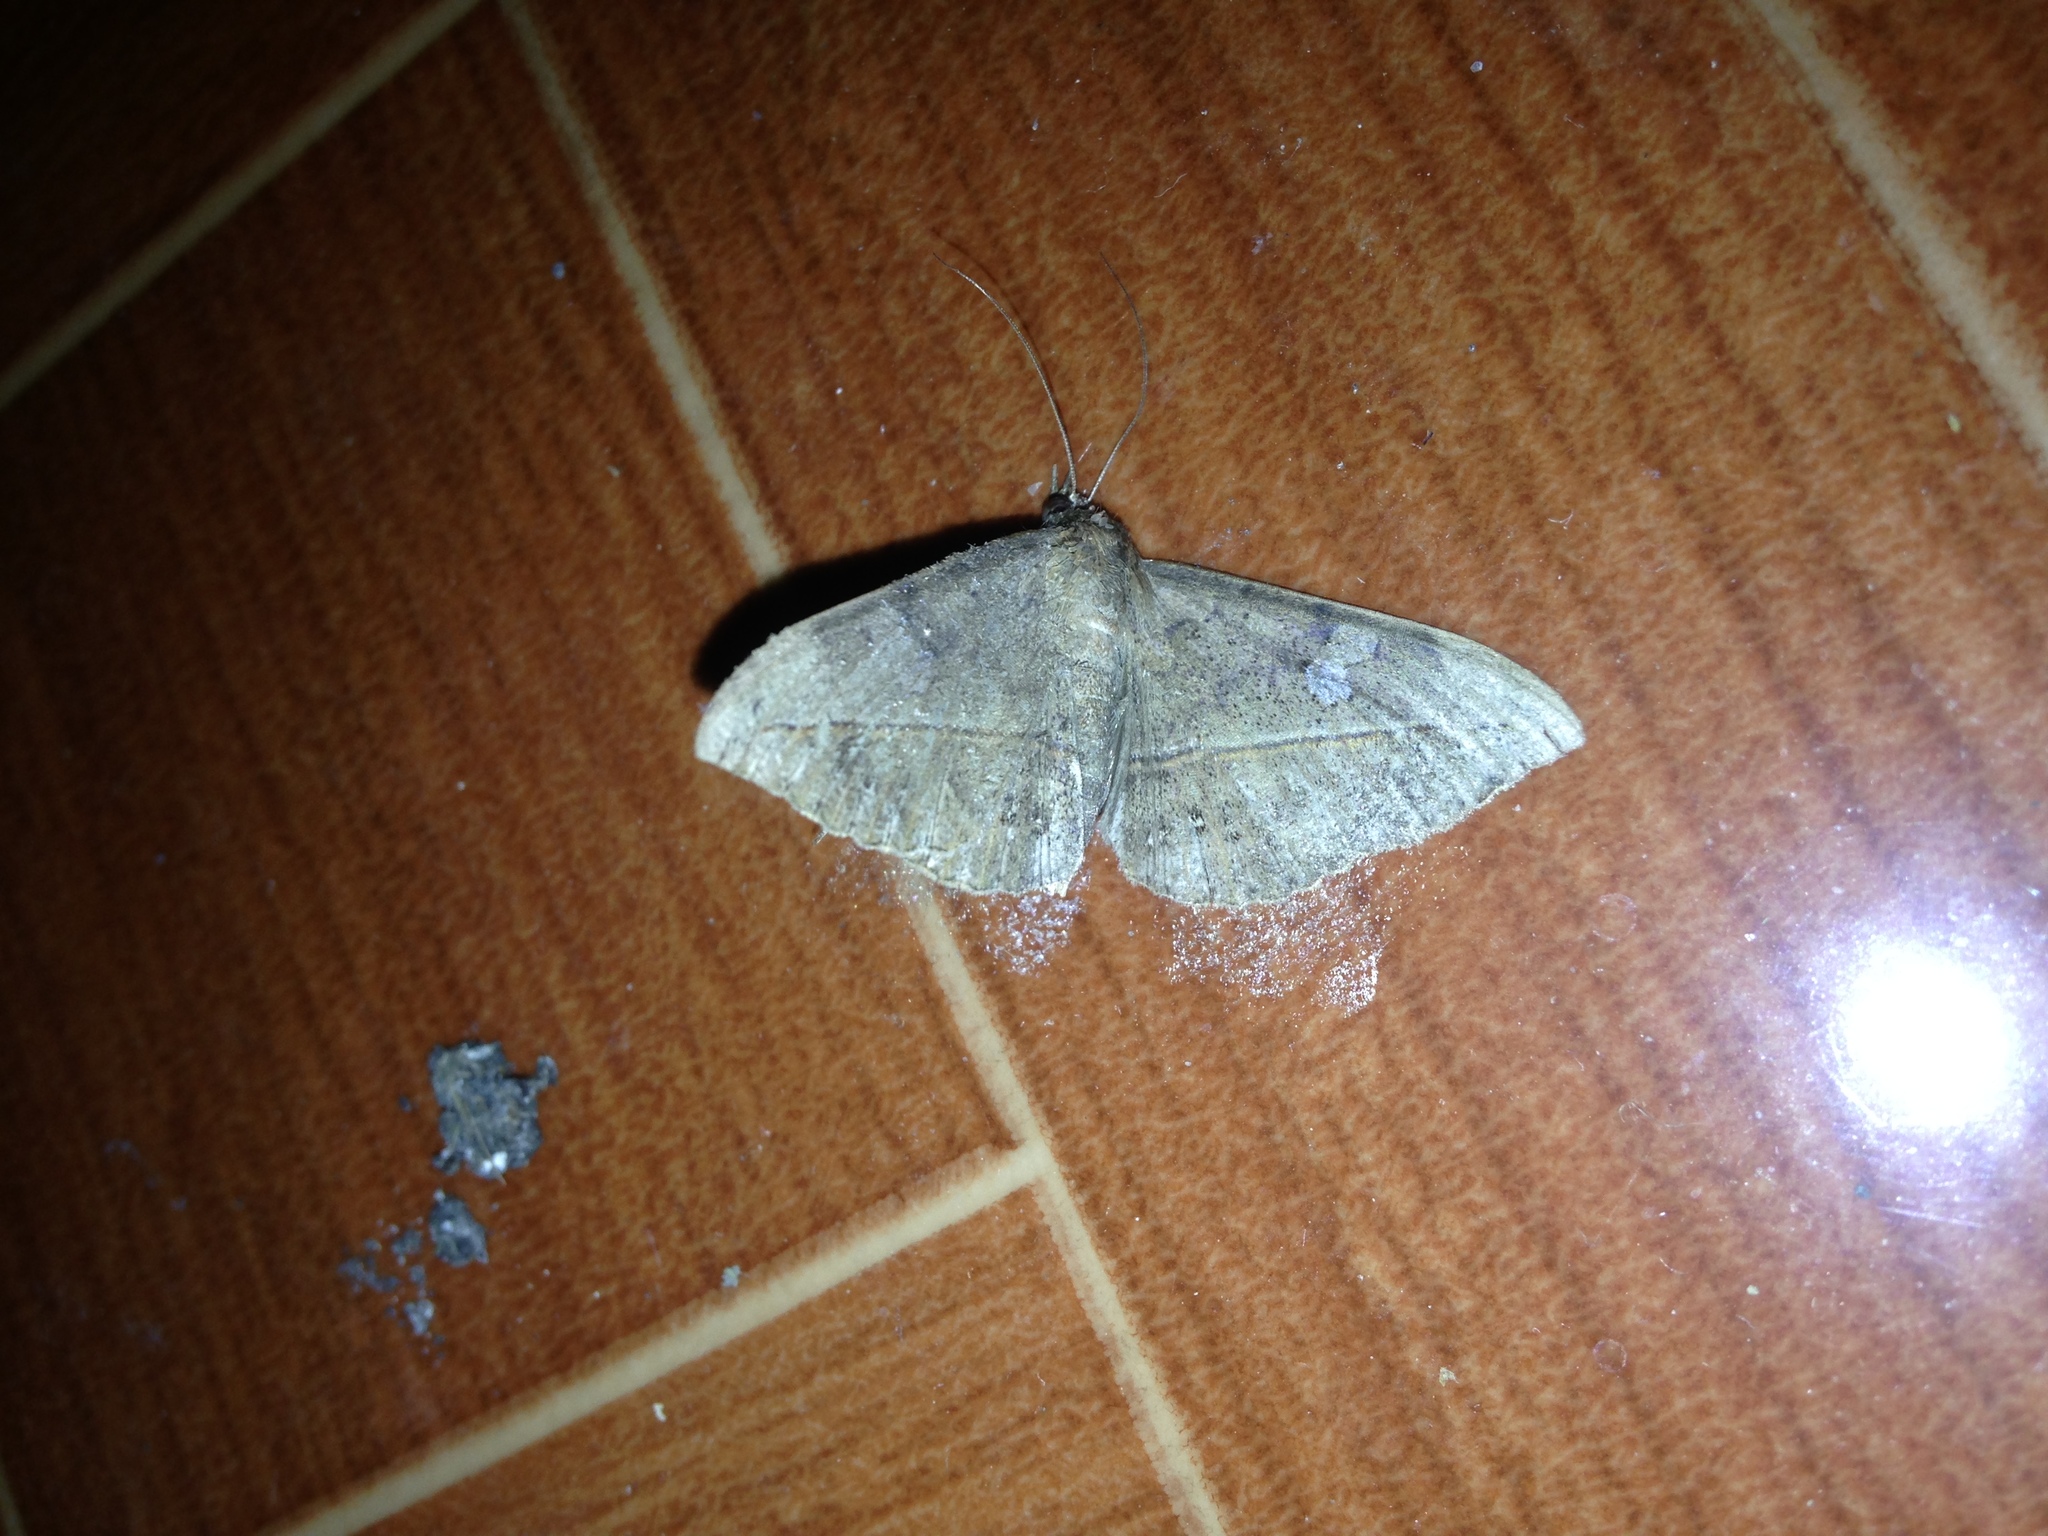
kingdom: Animalia
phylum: Arthropoda
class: Insecta
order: Lepidoptera
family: Erebidae
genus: Anticarsia
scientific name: Anticarsia gemmatalis
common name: Cutworm moth
